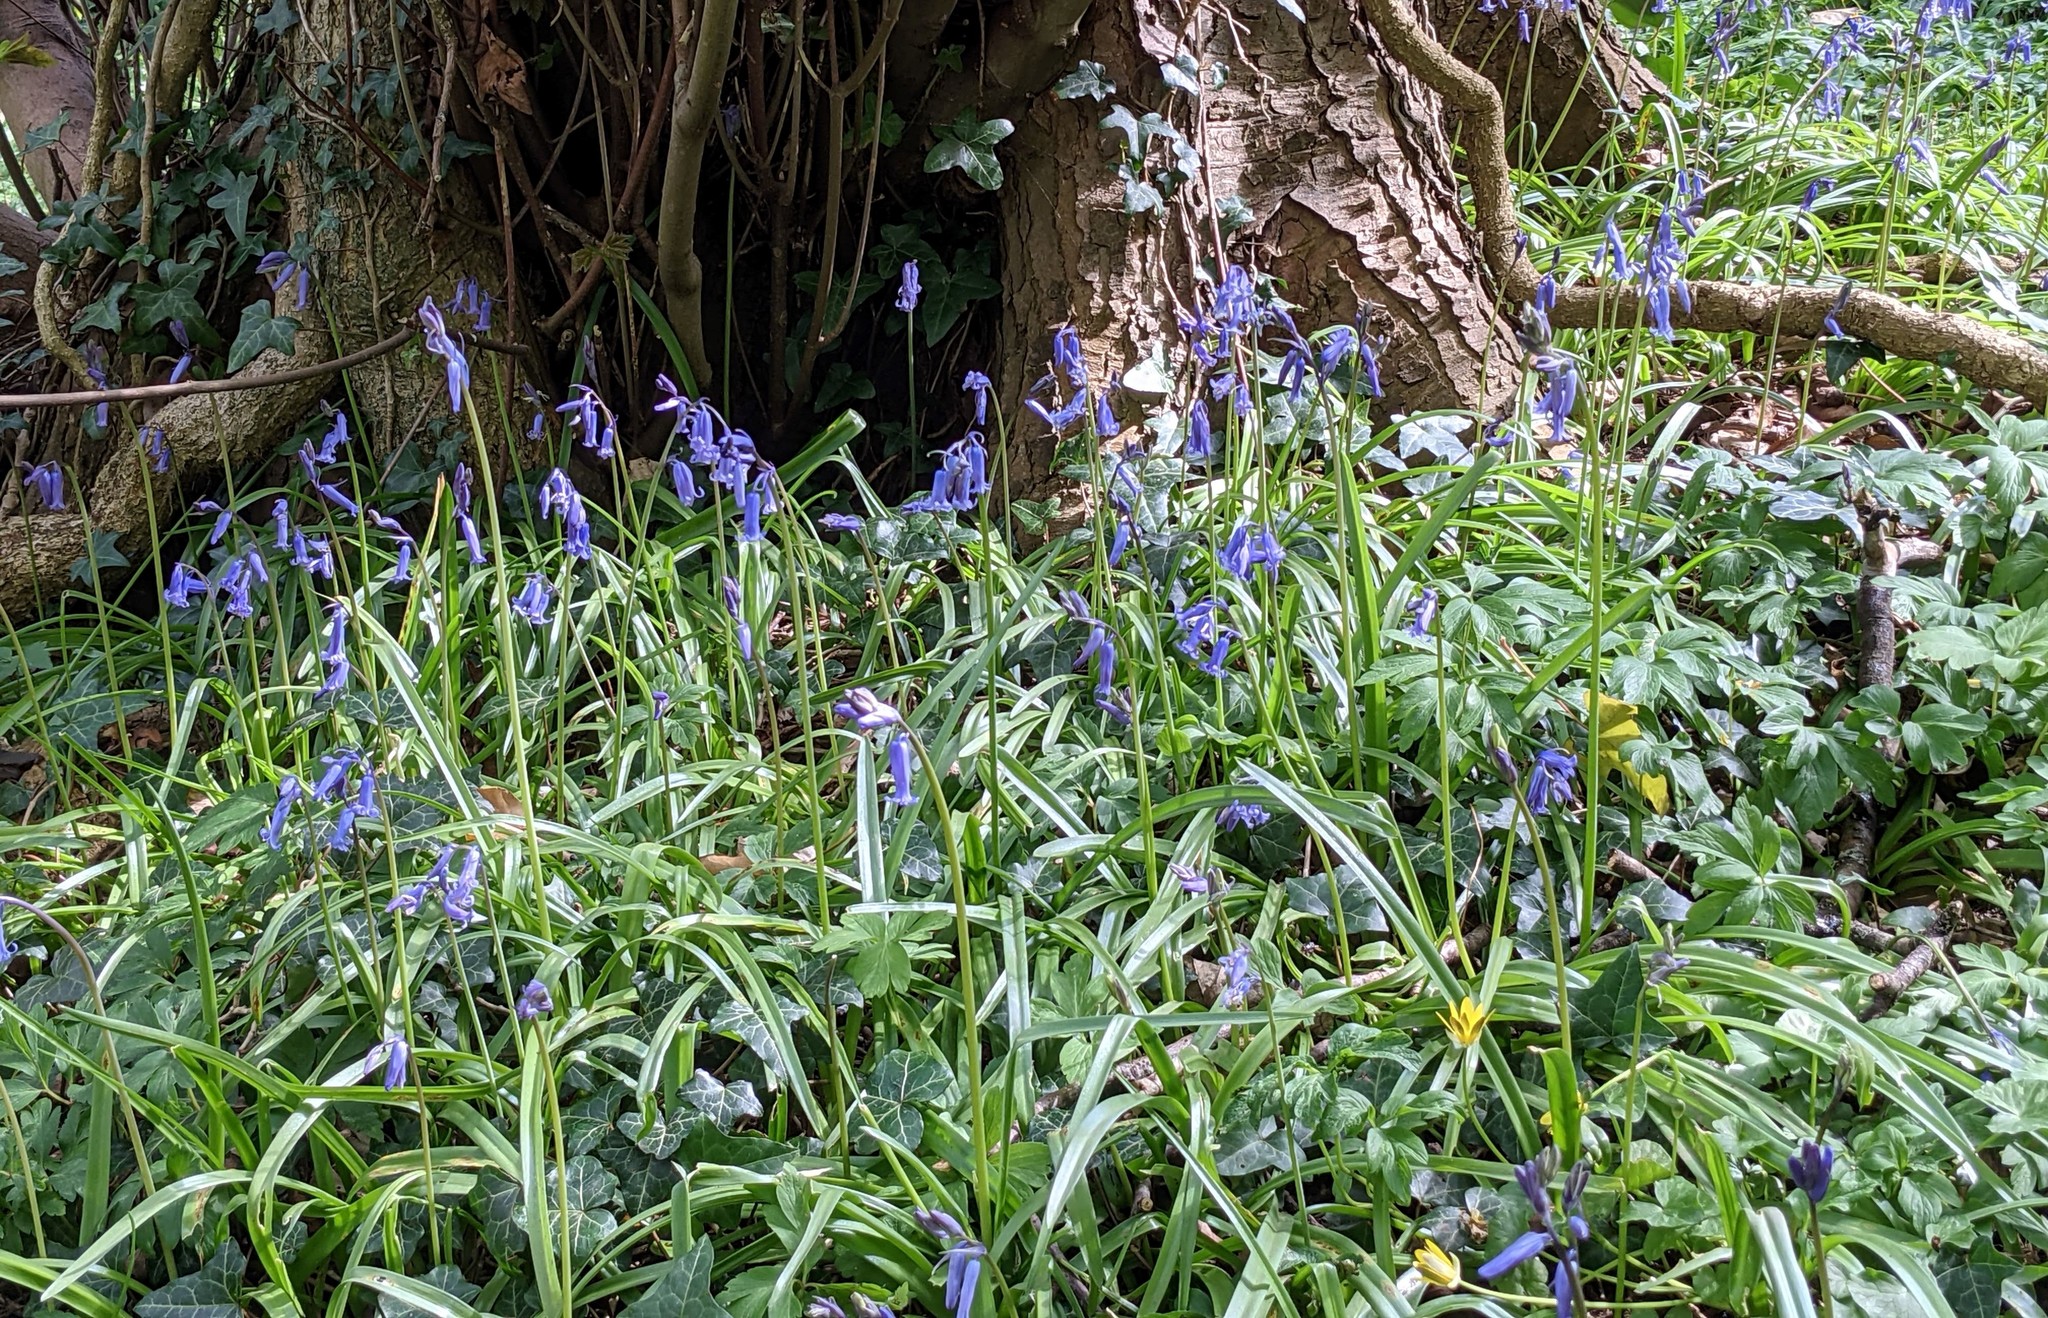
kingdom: Plantae
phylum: Tracheophyta
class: Liliopsida
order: Asparagales
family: Asparagaceae
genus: Hyacinthoides
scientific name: Hyacinthoides non-scripta
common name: Bluebell
